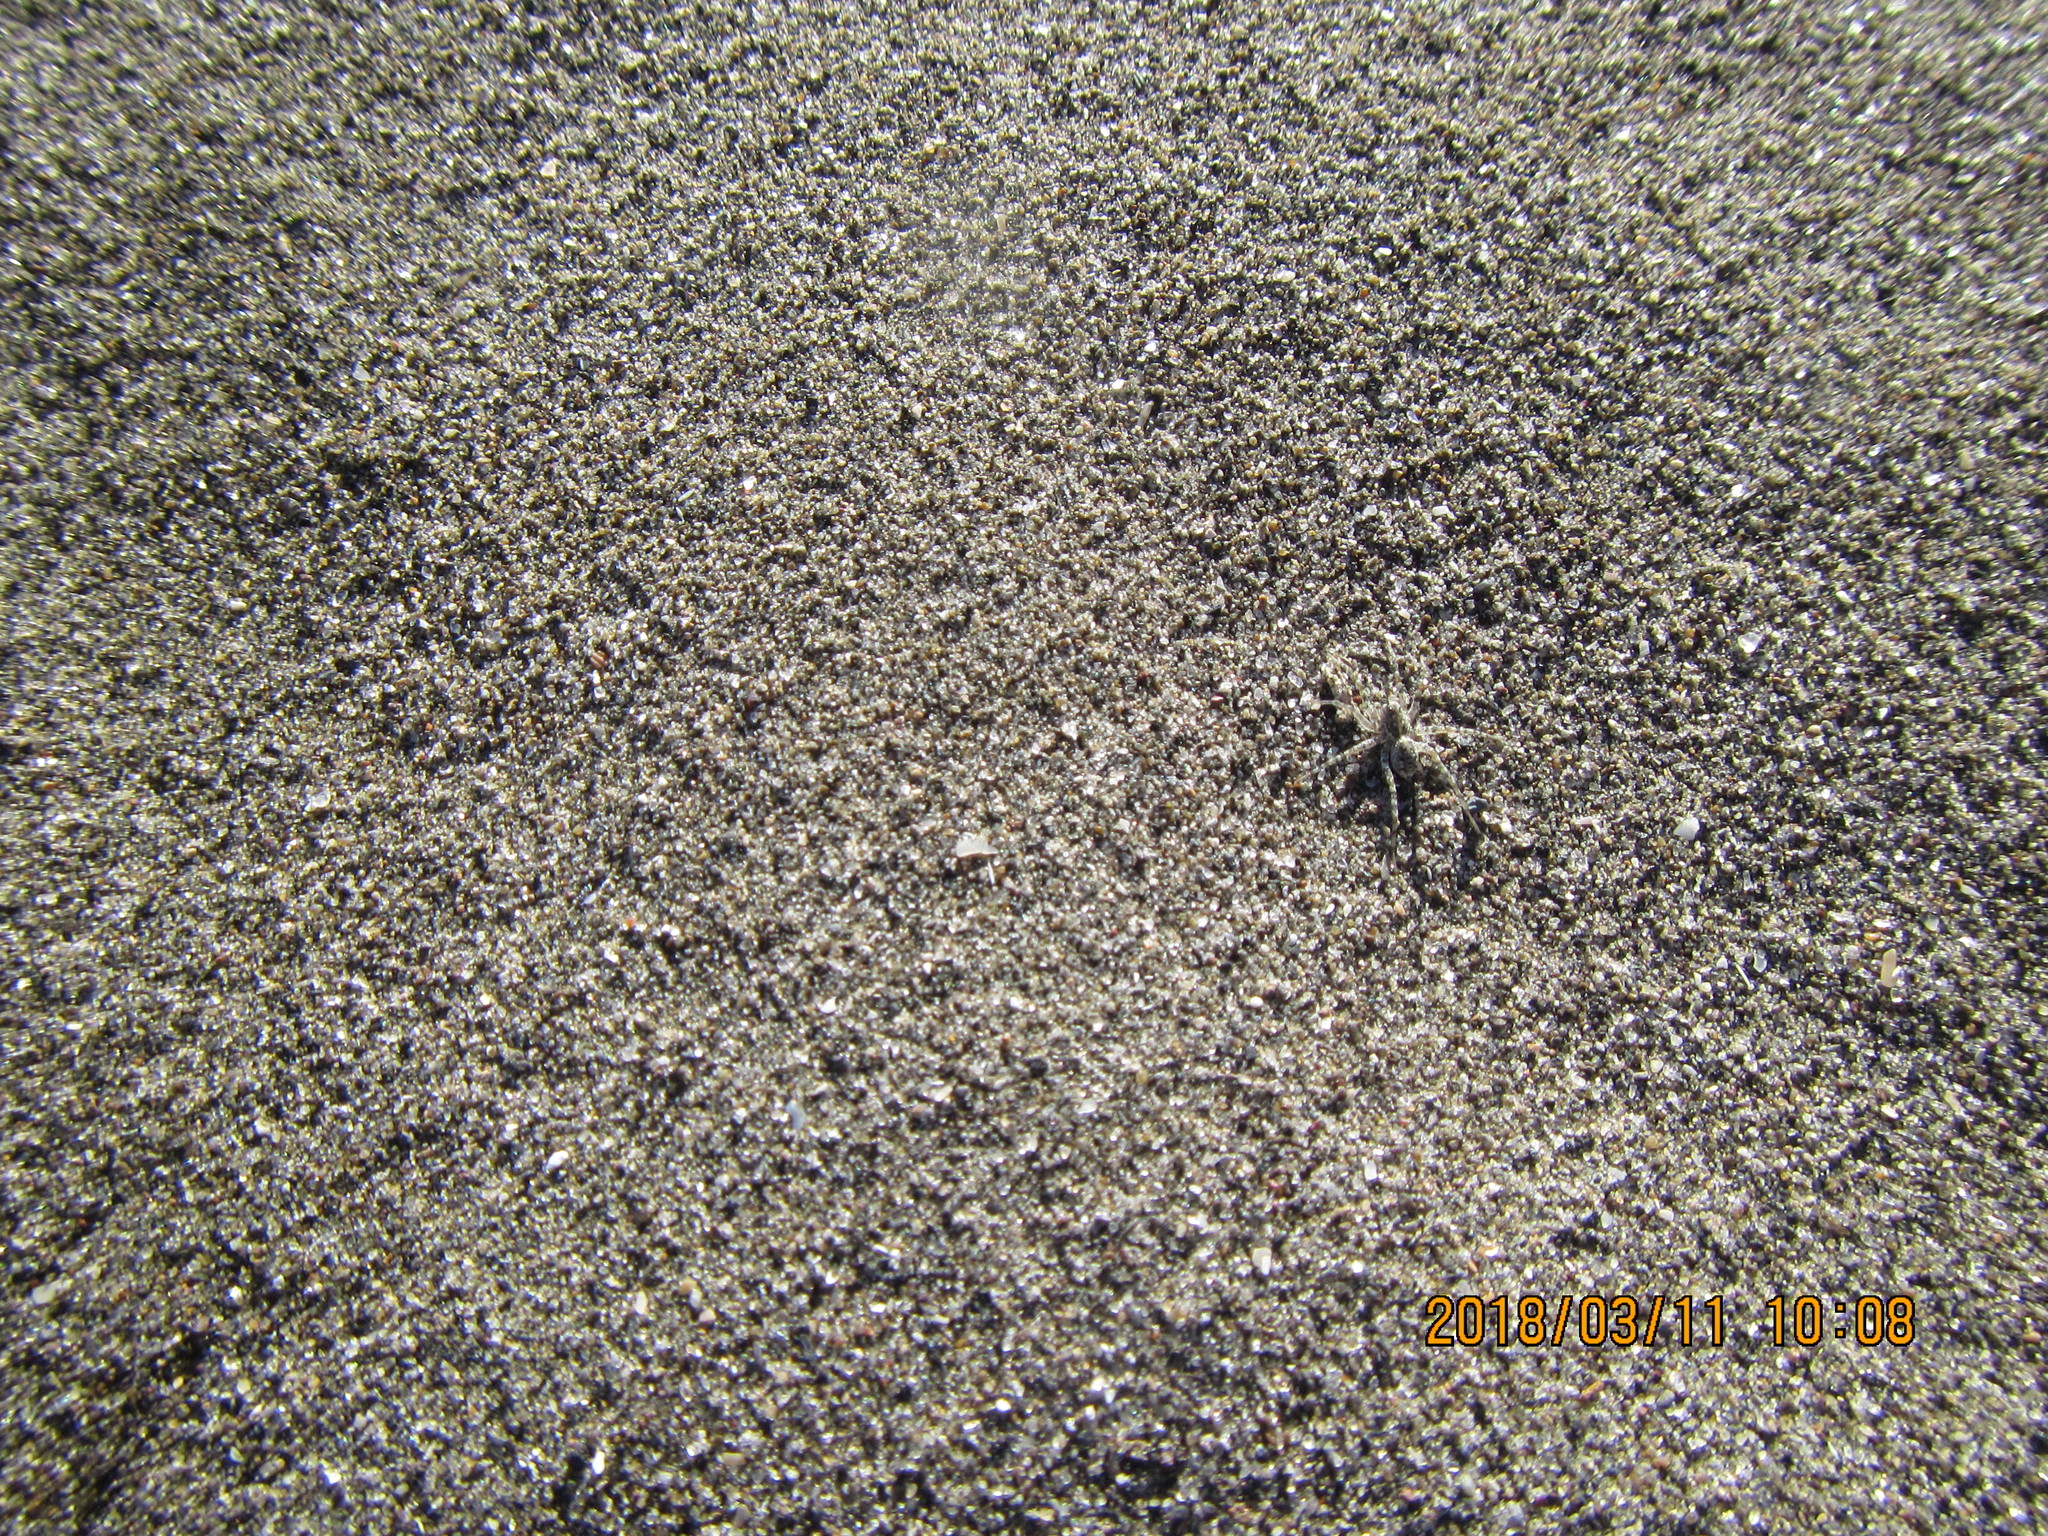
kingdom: Animalia
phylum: Arthropoda
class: Arachnida
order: Araneae
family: Lycosidae
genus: Anoteropsis
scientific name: Anoteropsis litoralis
